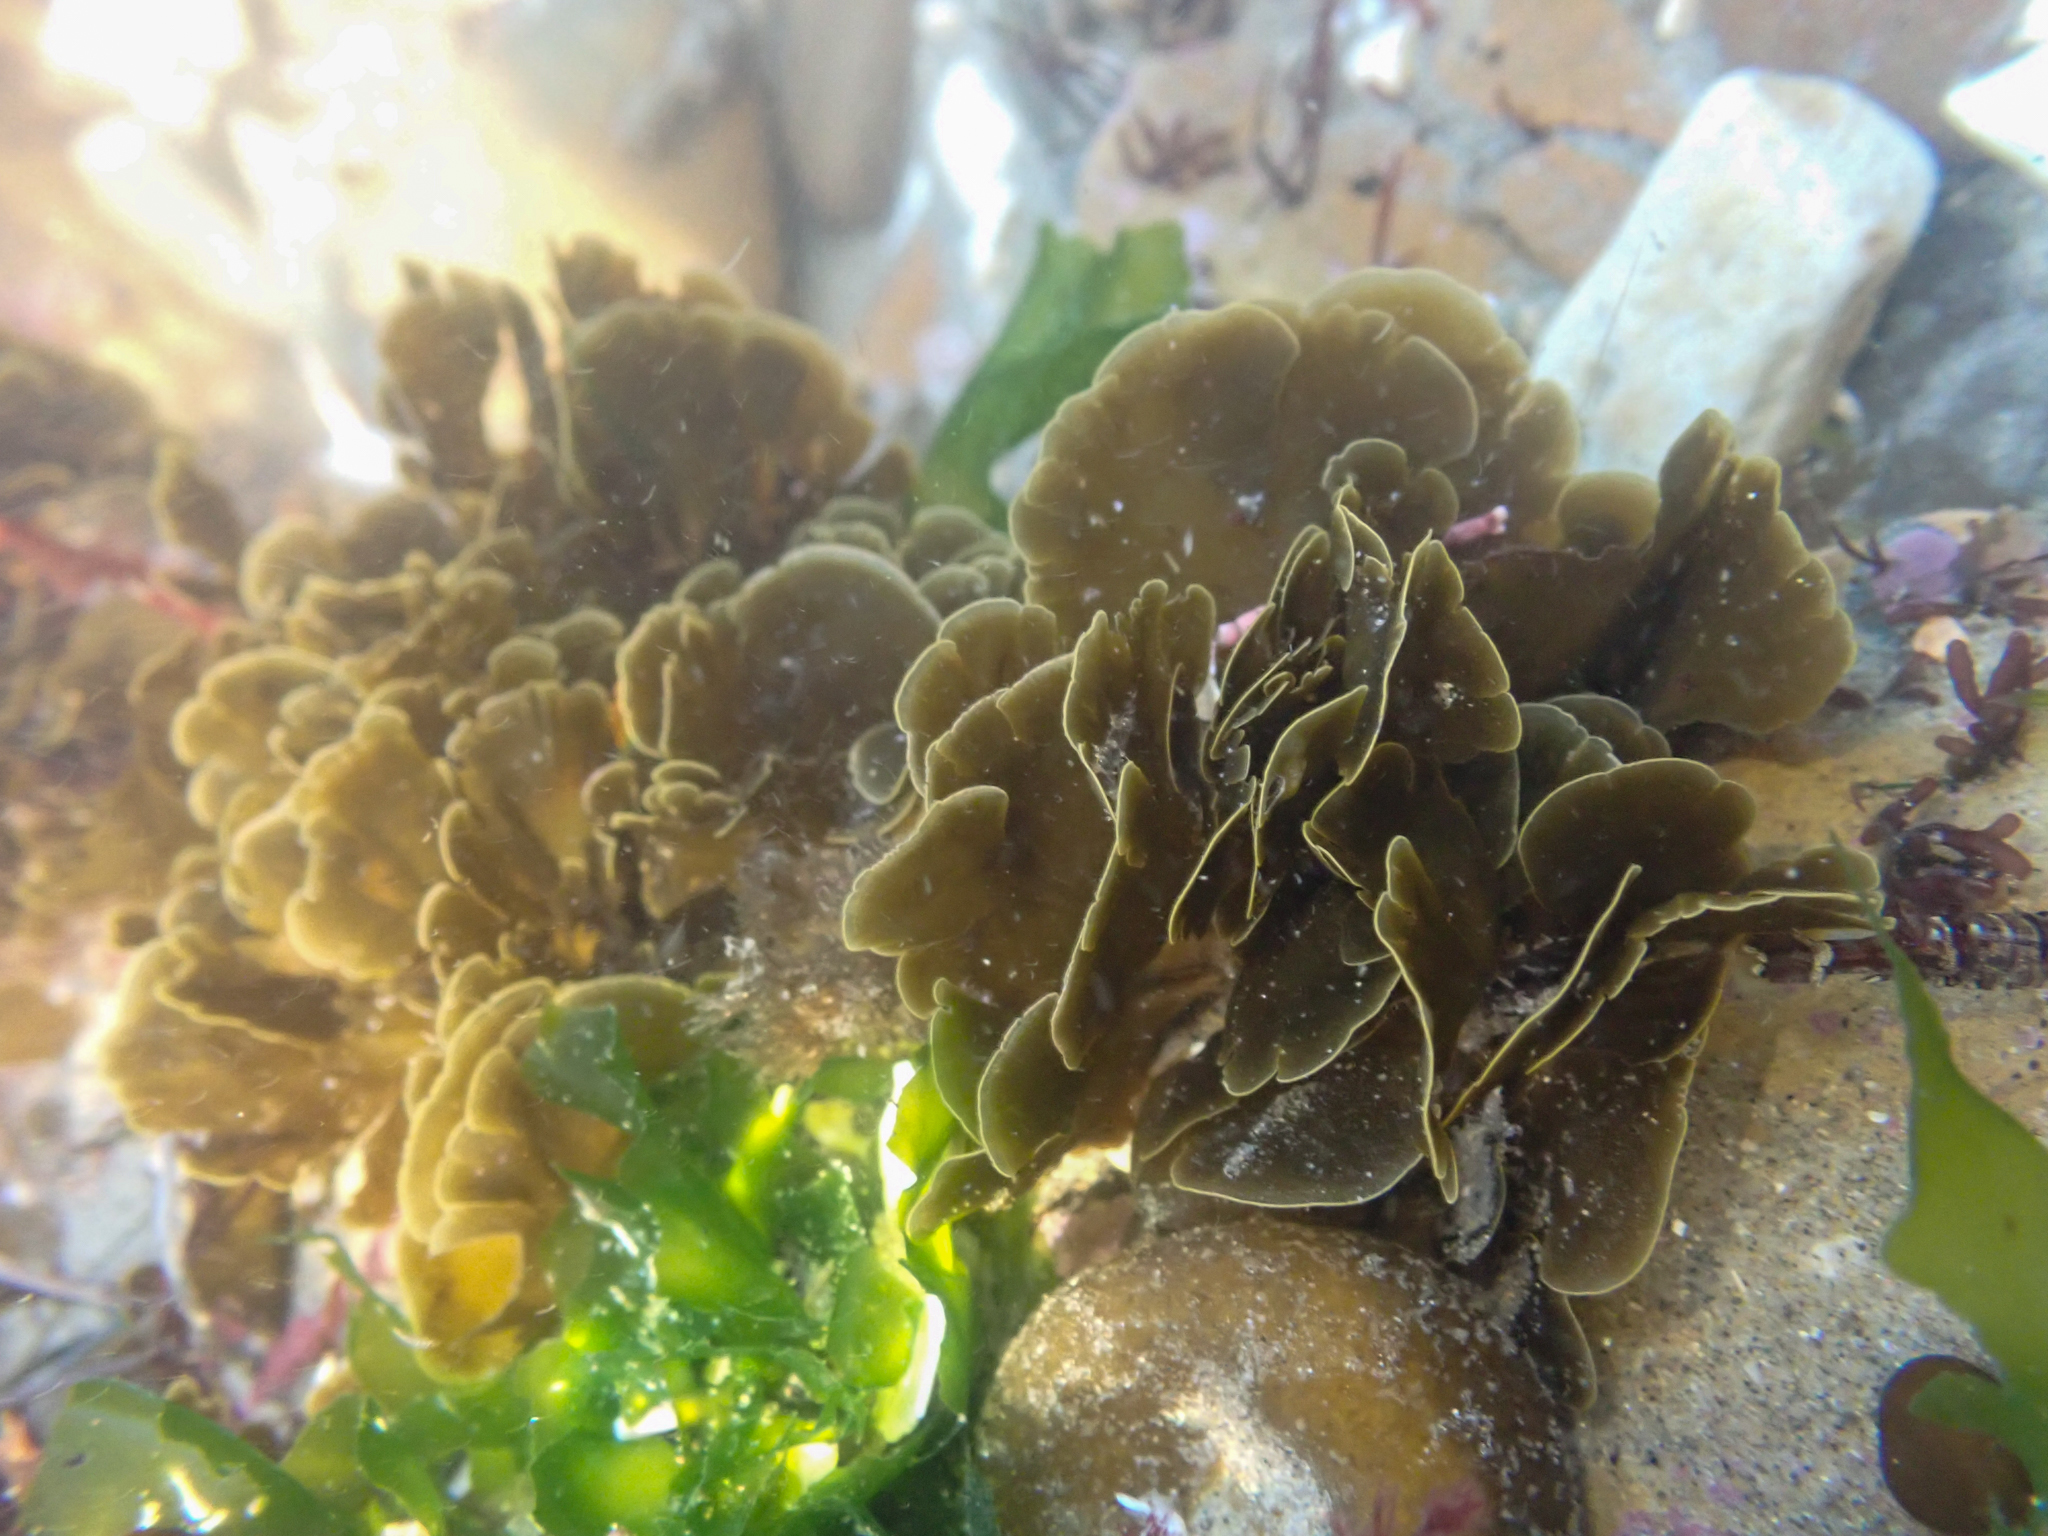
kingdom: Chromista
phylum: Ochrophyta
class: Phaeophyceae
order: Dictyotales
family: Dictyotaceae
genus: Zonaria
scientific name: Zonaria farlowii
